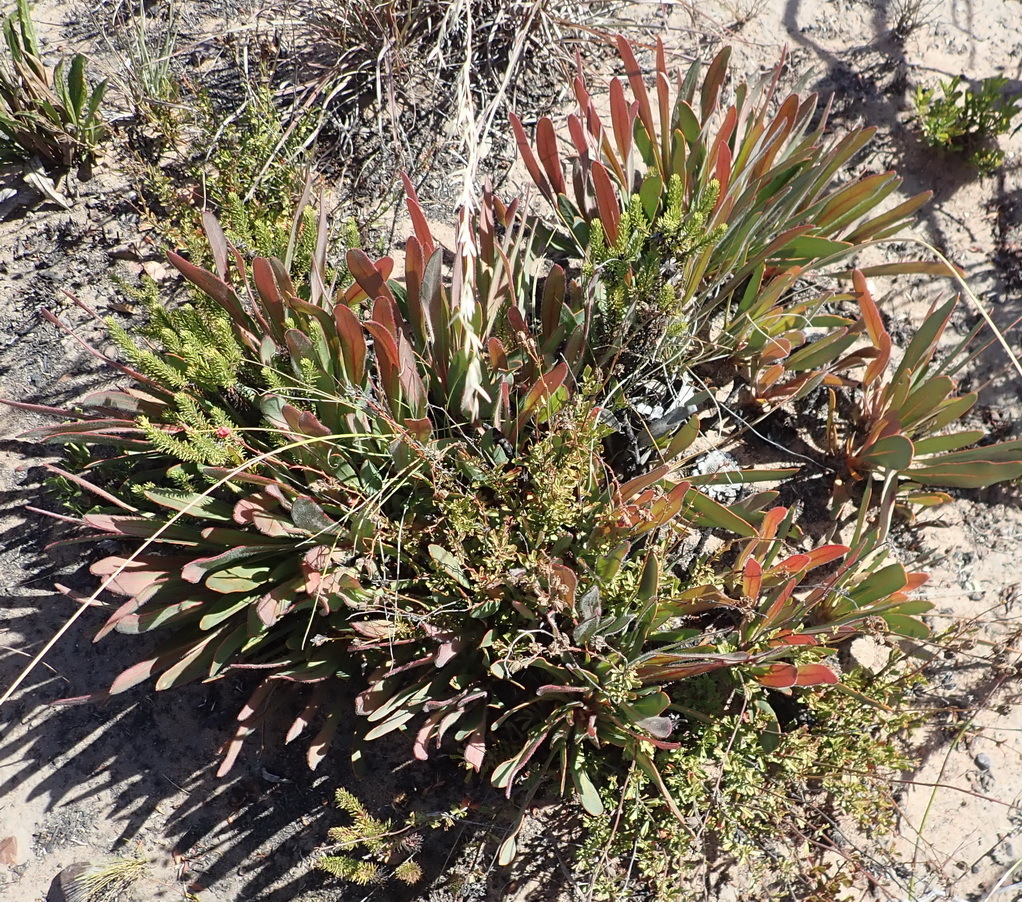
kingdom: Plantae
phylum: Tracheophyta
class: Magnoliopsida
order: Proteales
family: Proteaceae
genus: Protea
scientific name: Protea vogtsiae
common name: Kouga sugarbush
